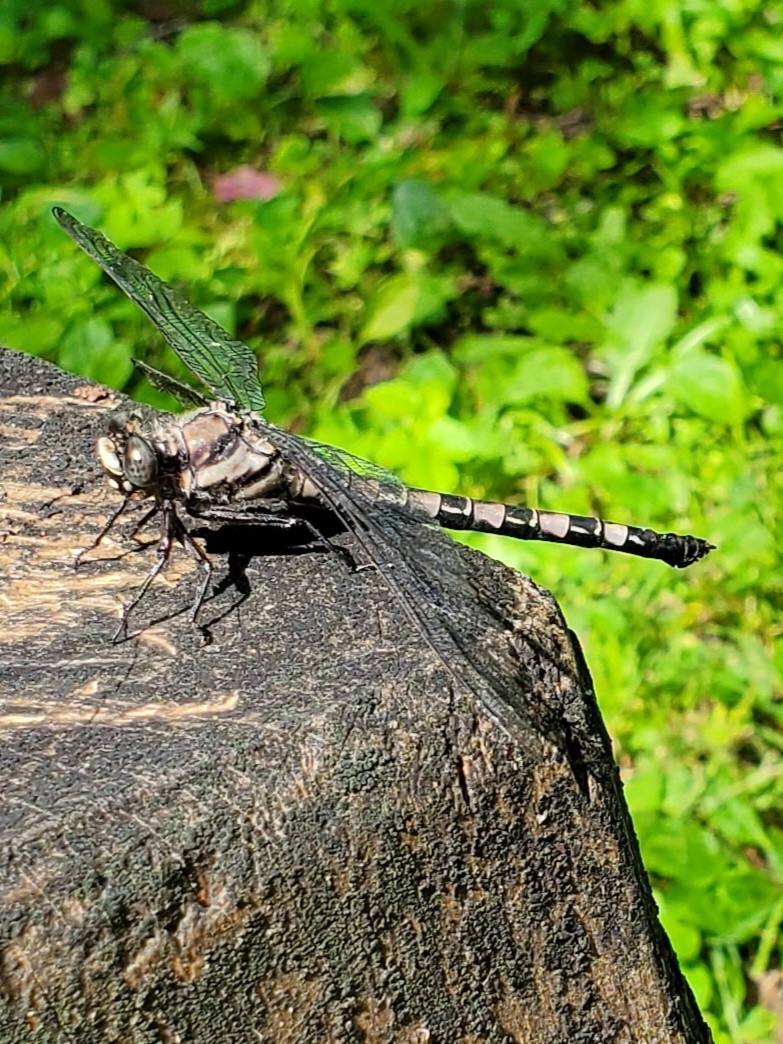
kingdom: Animalia
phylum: Arthropoda
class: Insecta
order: Odonata
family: Petaluridae
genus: Tachopteryx
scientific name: Tachopteryx thoreyi
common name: Gray petaltail
